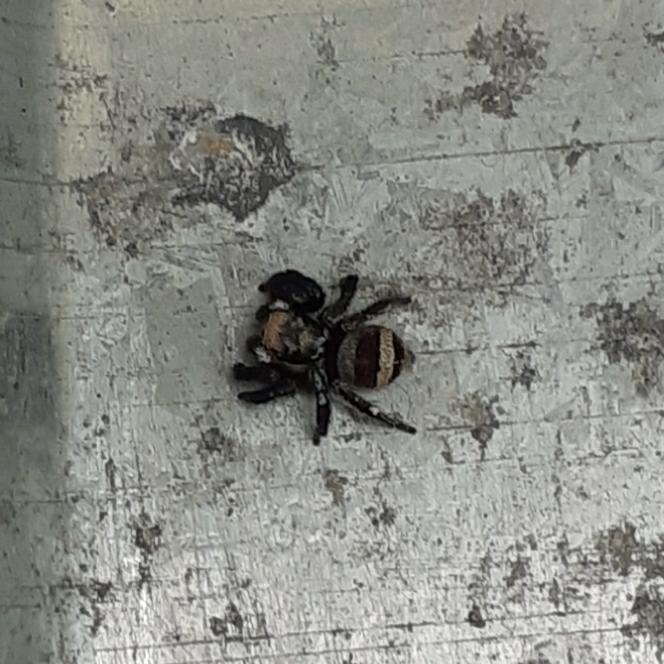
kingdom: Animalia
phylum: Arthropoda
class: Arachnida
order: Araneae
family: Salticidae
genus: Corythalia
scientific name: Corythalia argentinensis
